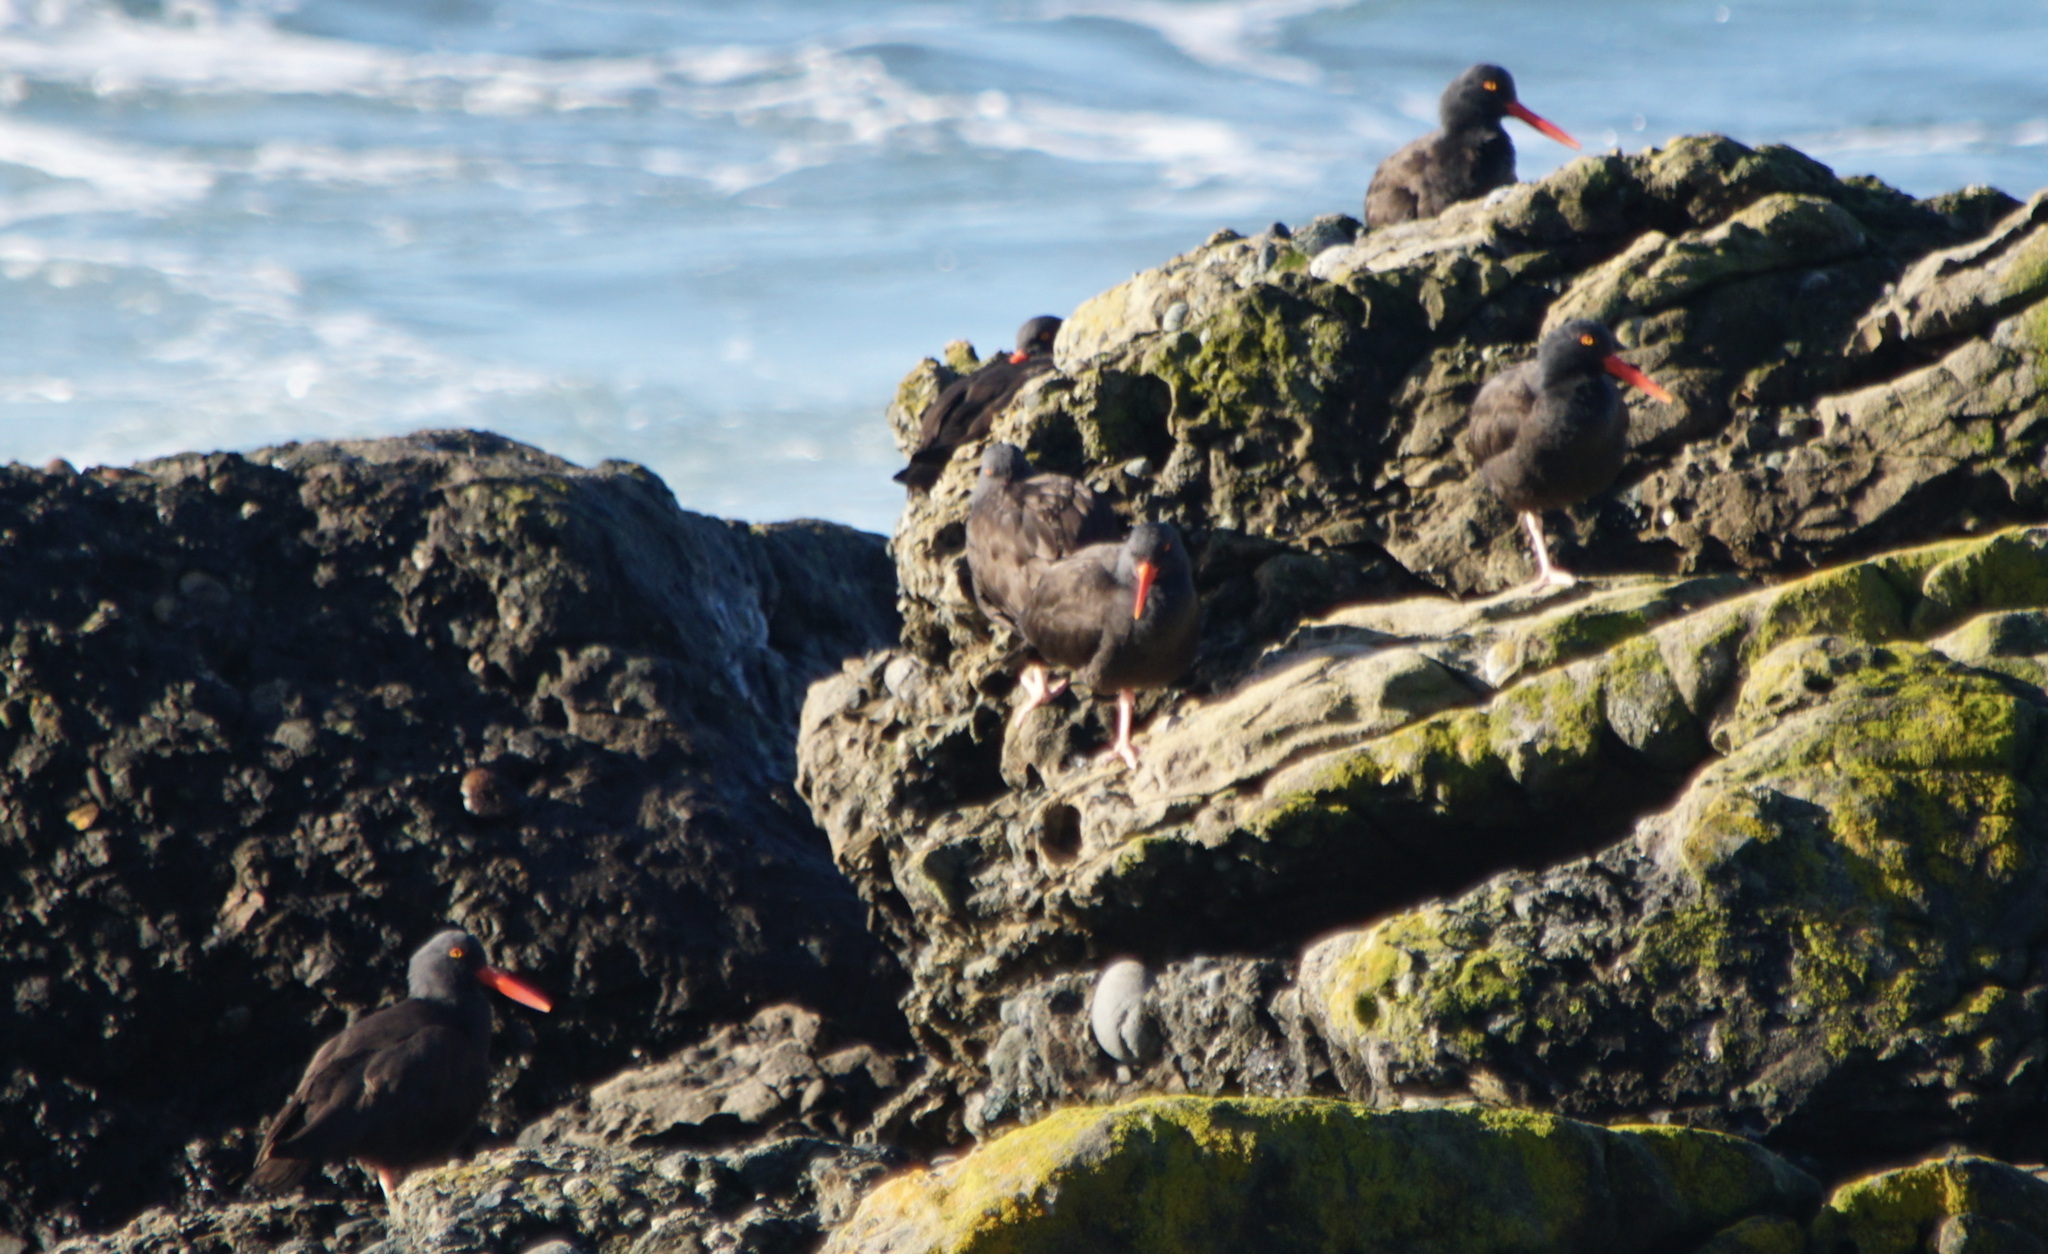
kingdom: Animalia
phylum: Chordata
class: Aves
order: Charadriiformes
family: Haematopodidae
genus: Haematopus
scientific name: Haematopus bachmani
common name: Black oystercatcher
